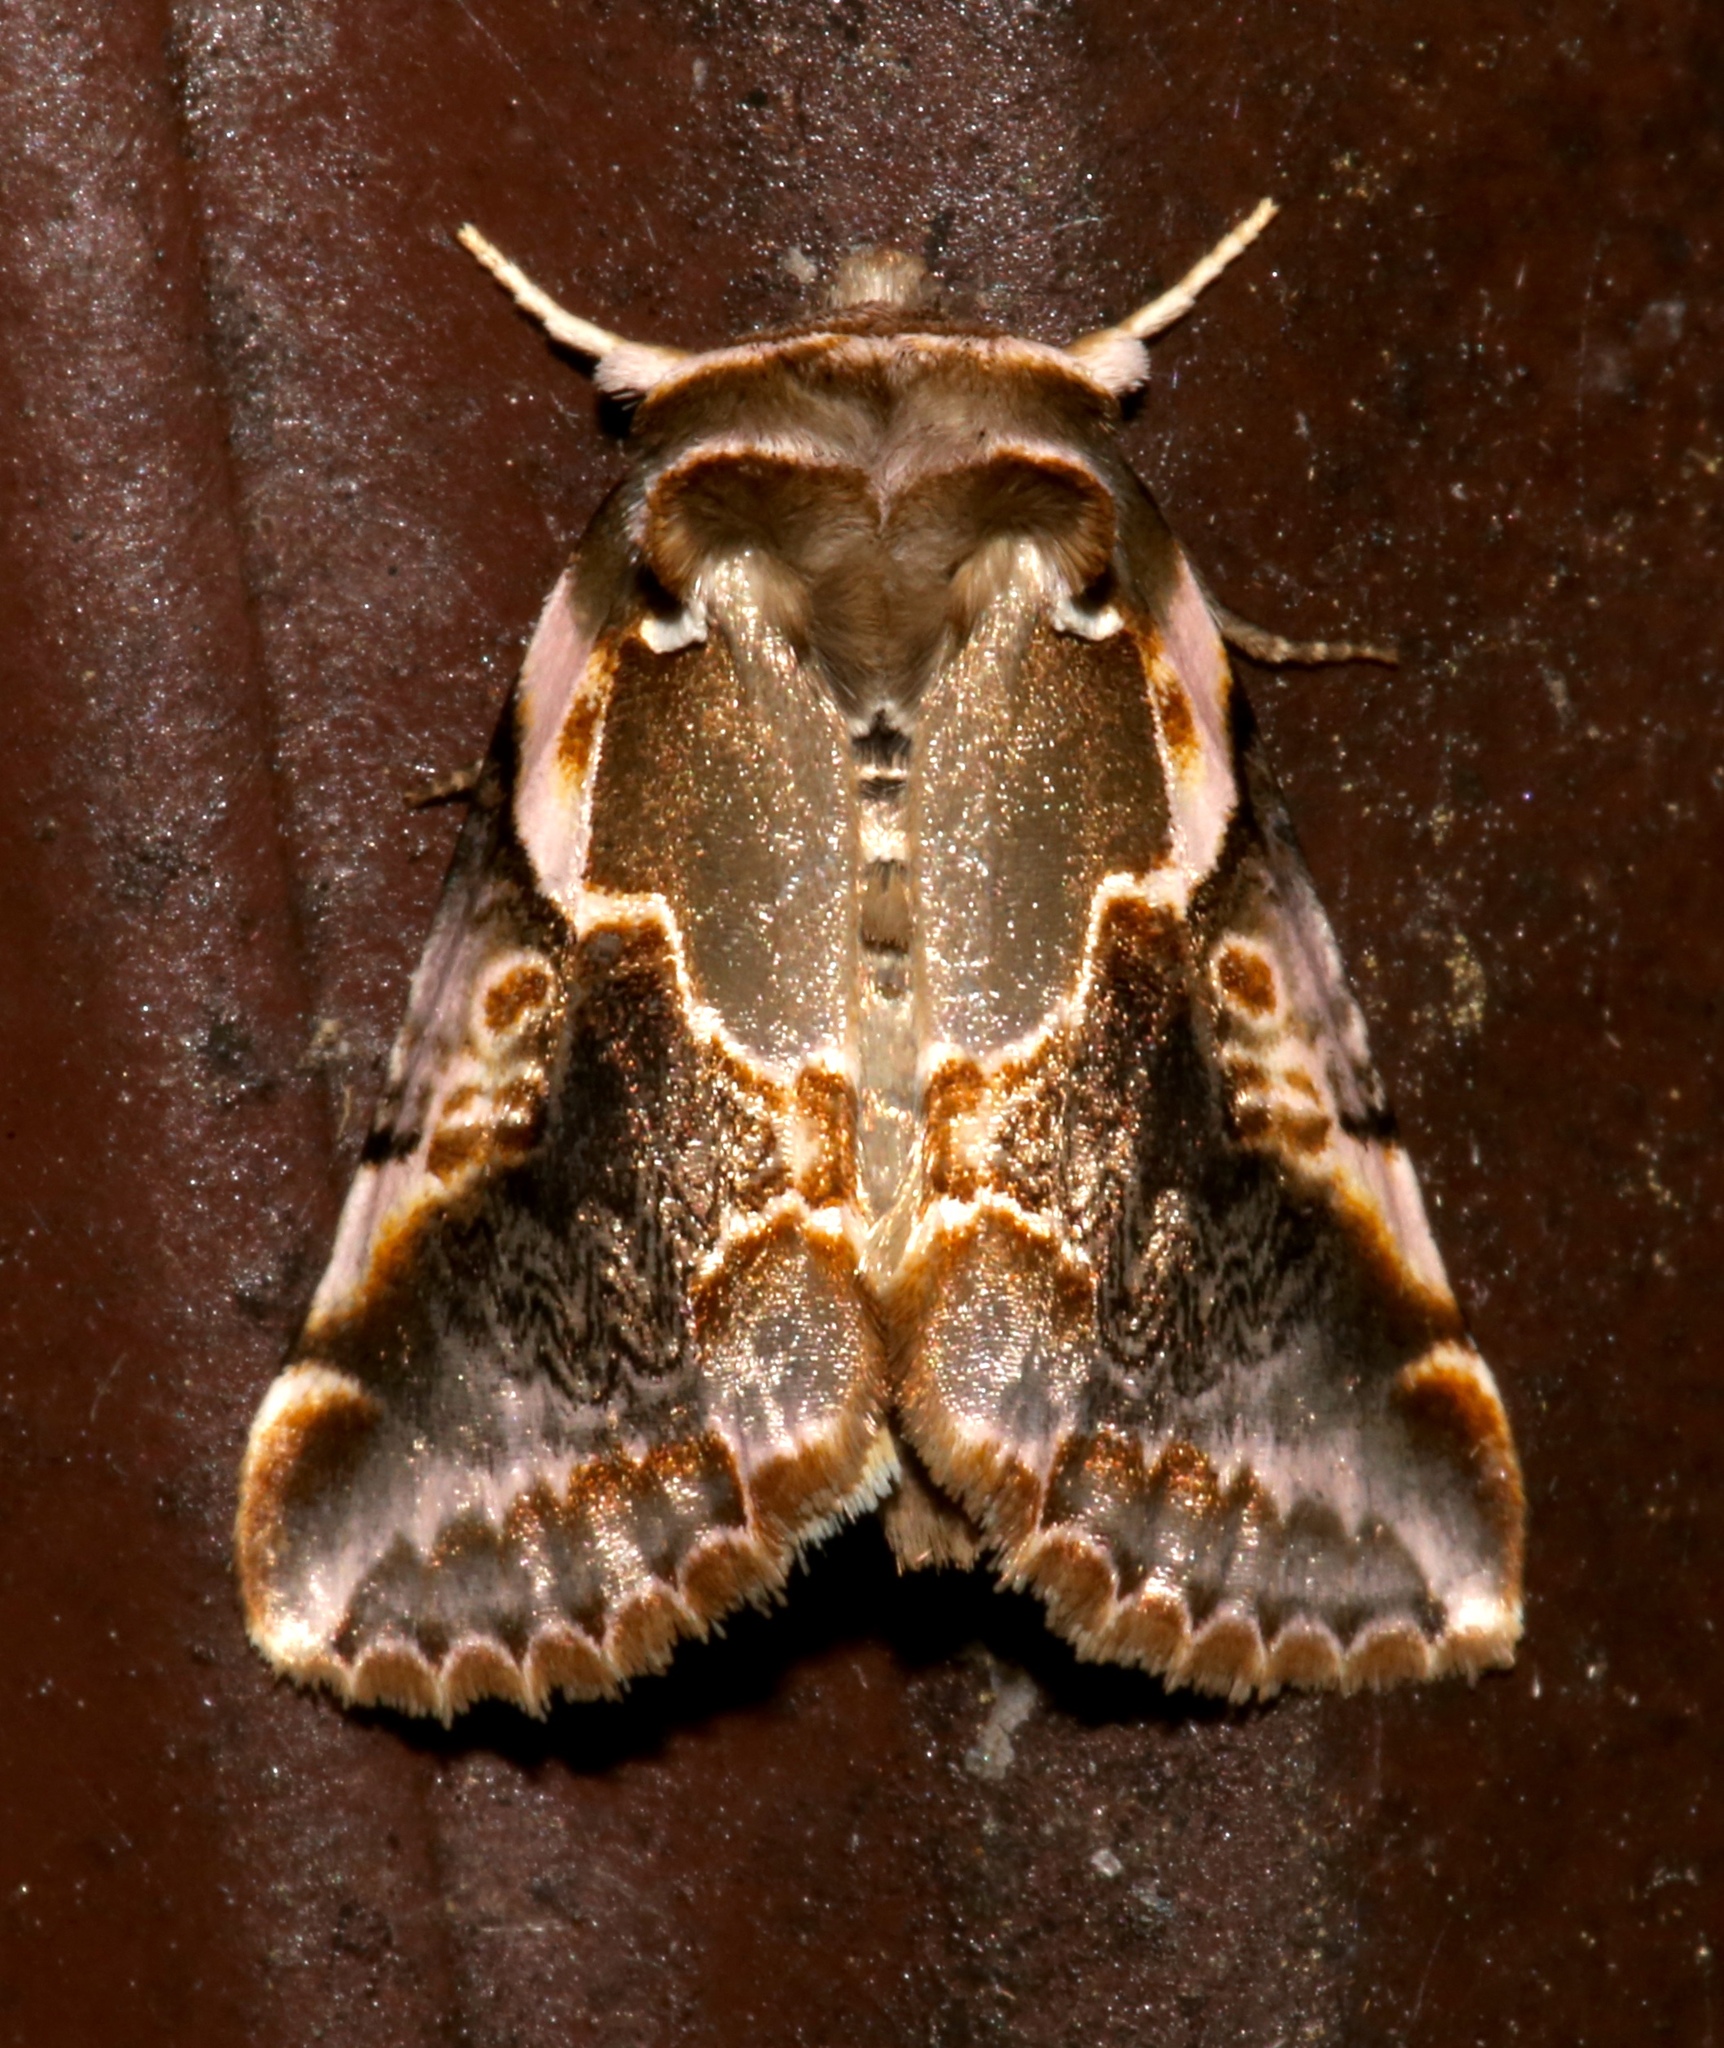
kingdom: Animalia
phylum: Arthropoda
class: Insecta
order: Lepidoptera
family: Drepanidae
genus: Habrosyne
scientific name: Habrosyne gloriosa
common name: Glorious habrosyne moth
